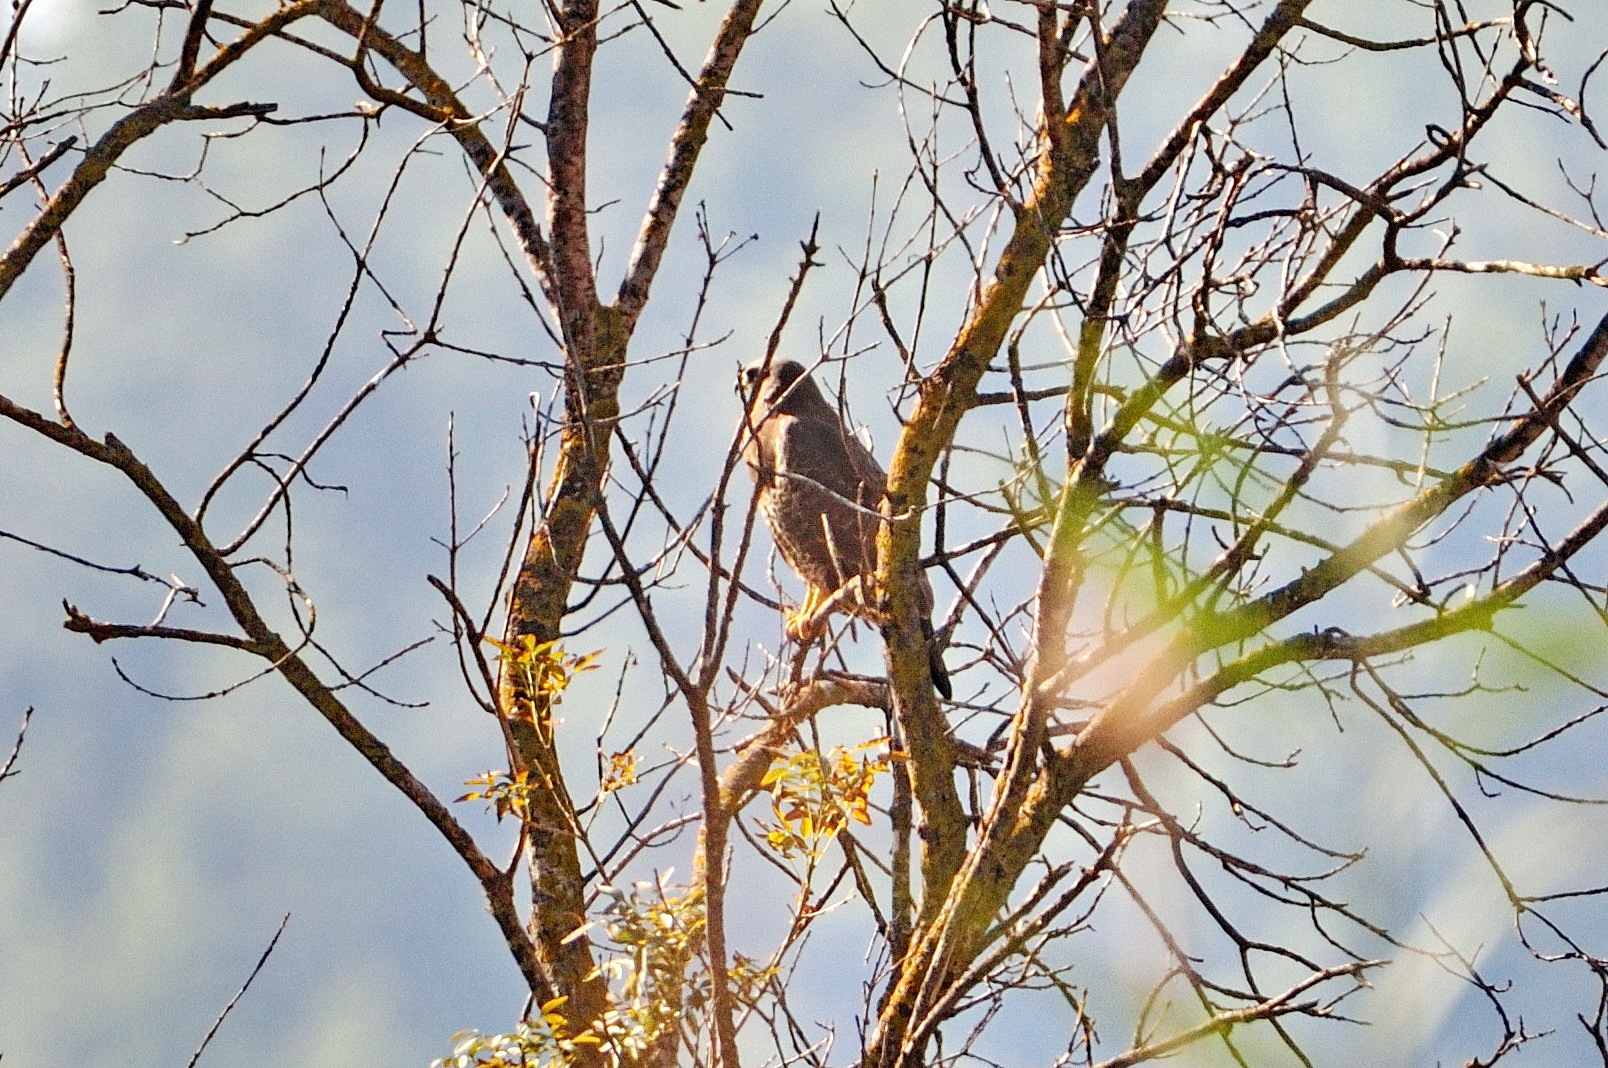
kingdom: Animalia
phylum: Chordata
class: Aves
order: Accipitriformes
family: Accipitridae
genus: Buteo
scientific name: Buteo buteo
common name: Common buzzard
